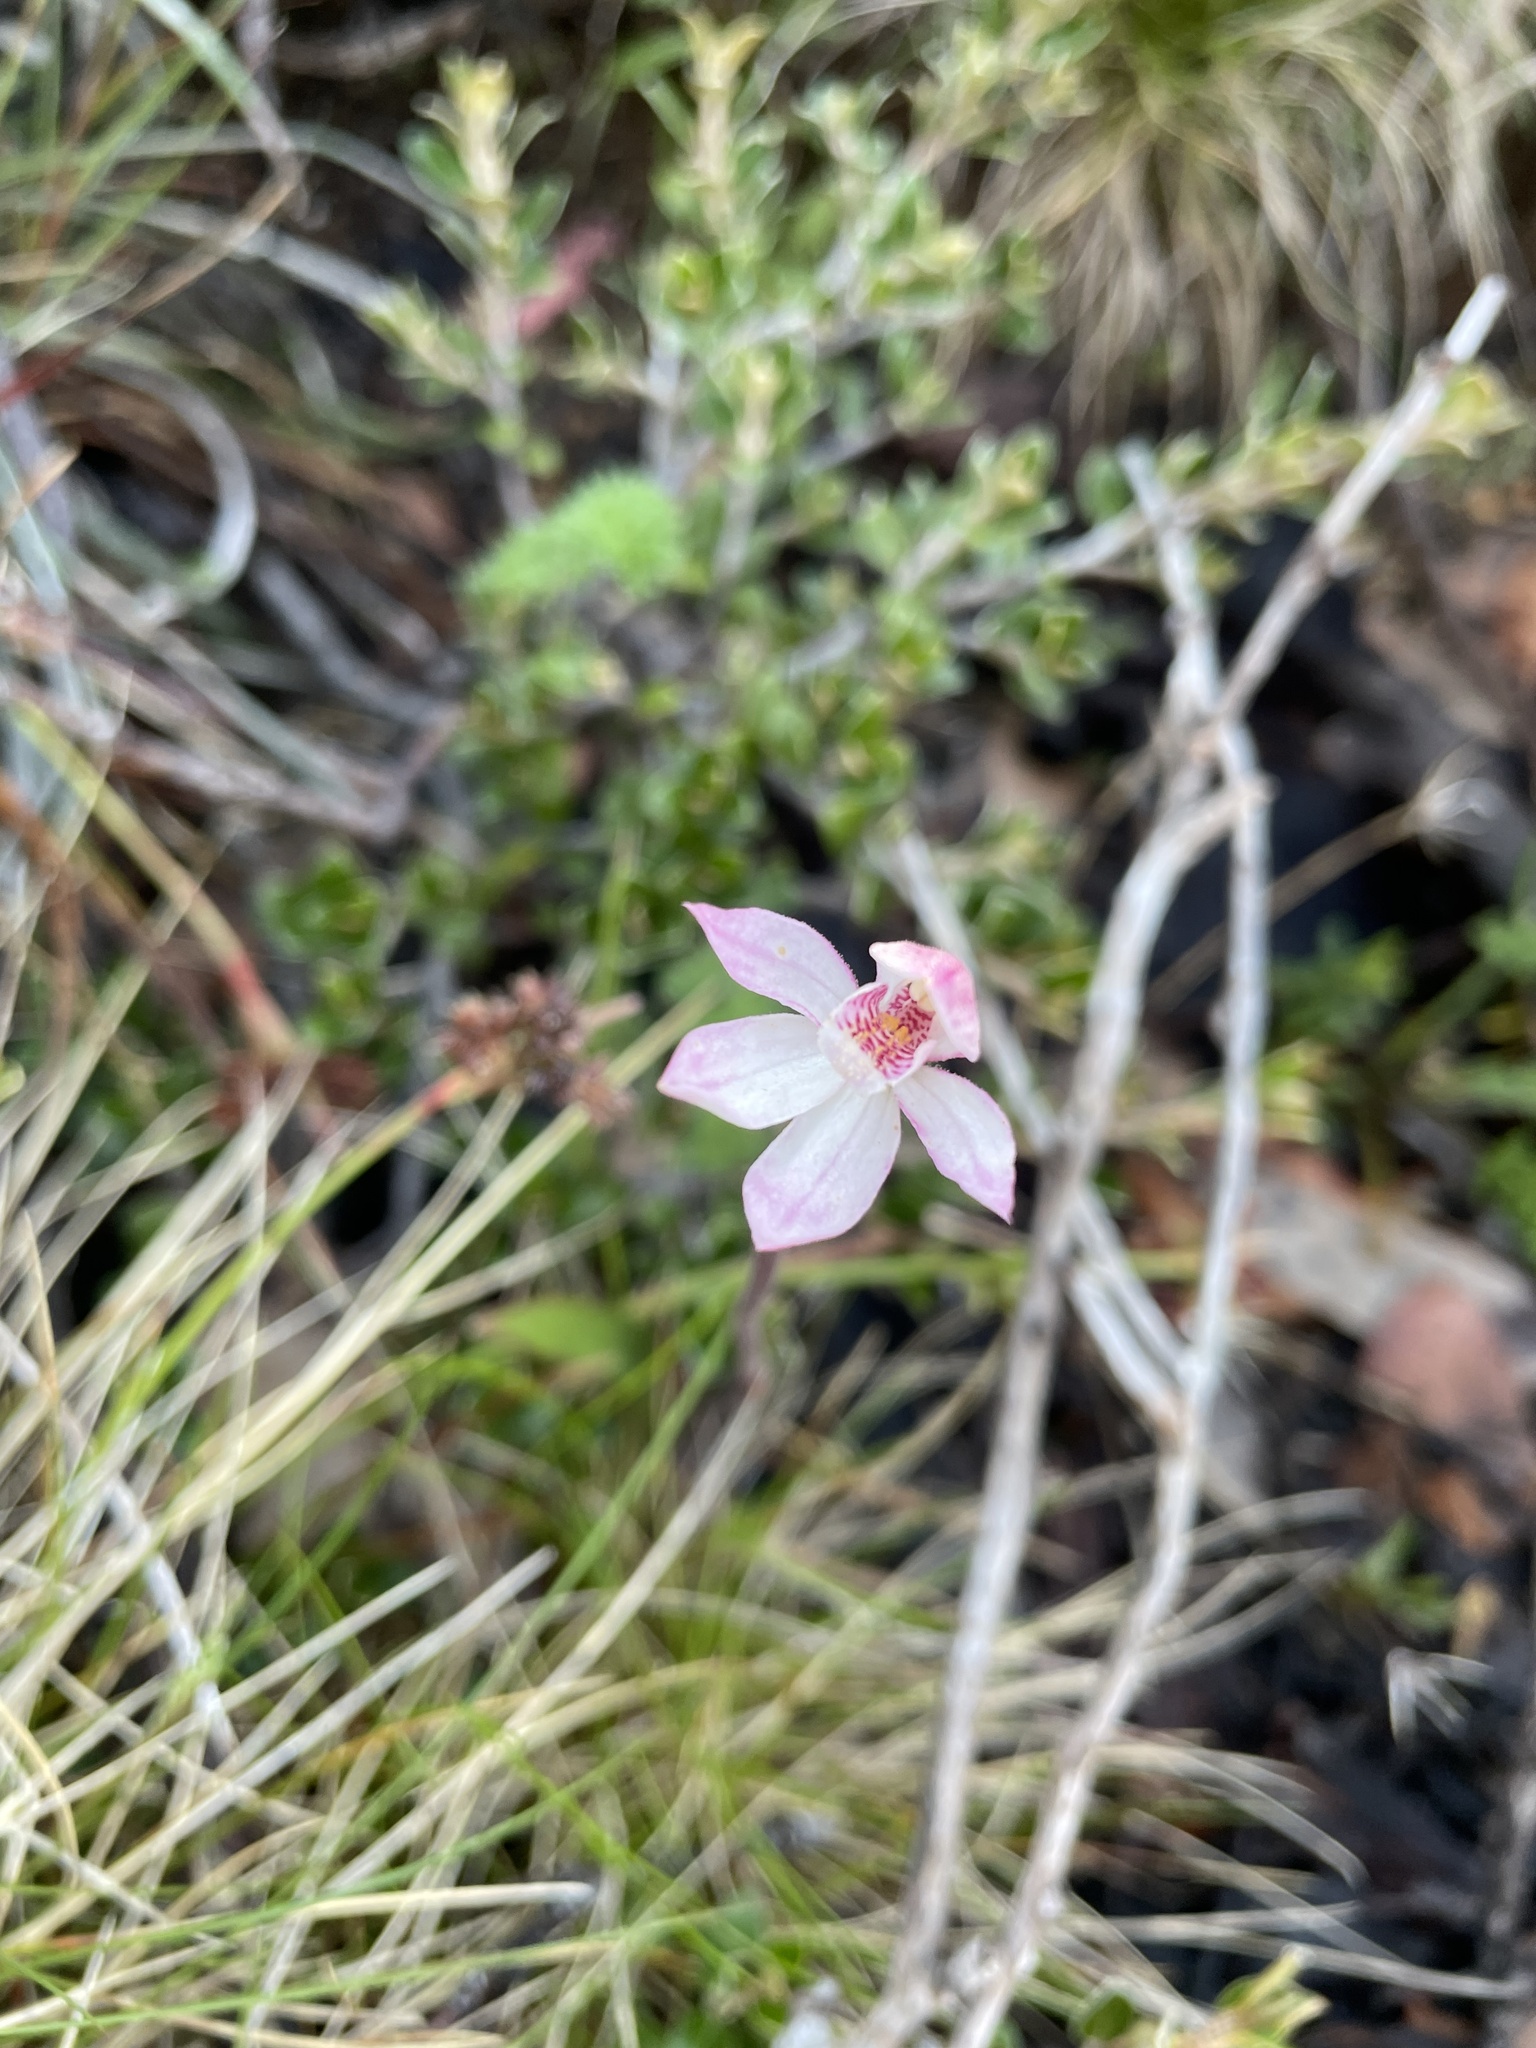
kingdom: Plantae
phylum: Tracheophyta
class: Liliopsida
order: Asparagales
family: Orchidaceae
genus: Caladenia
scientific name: Caladenia alpina
